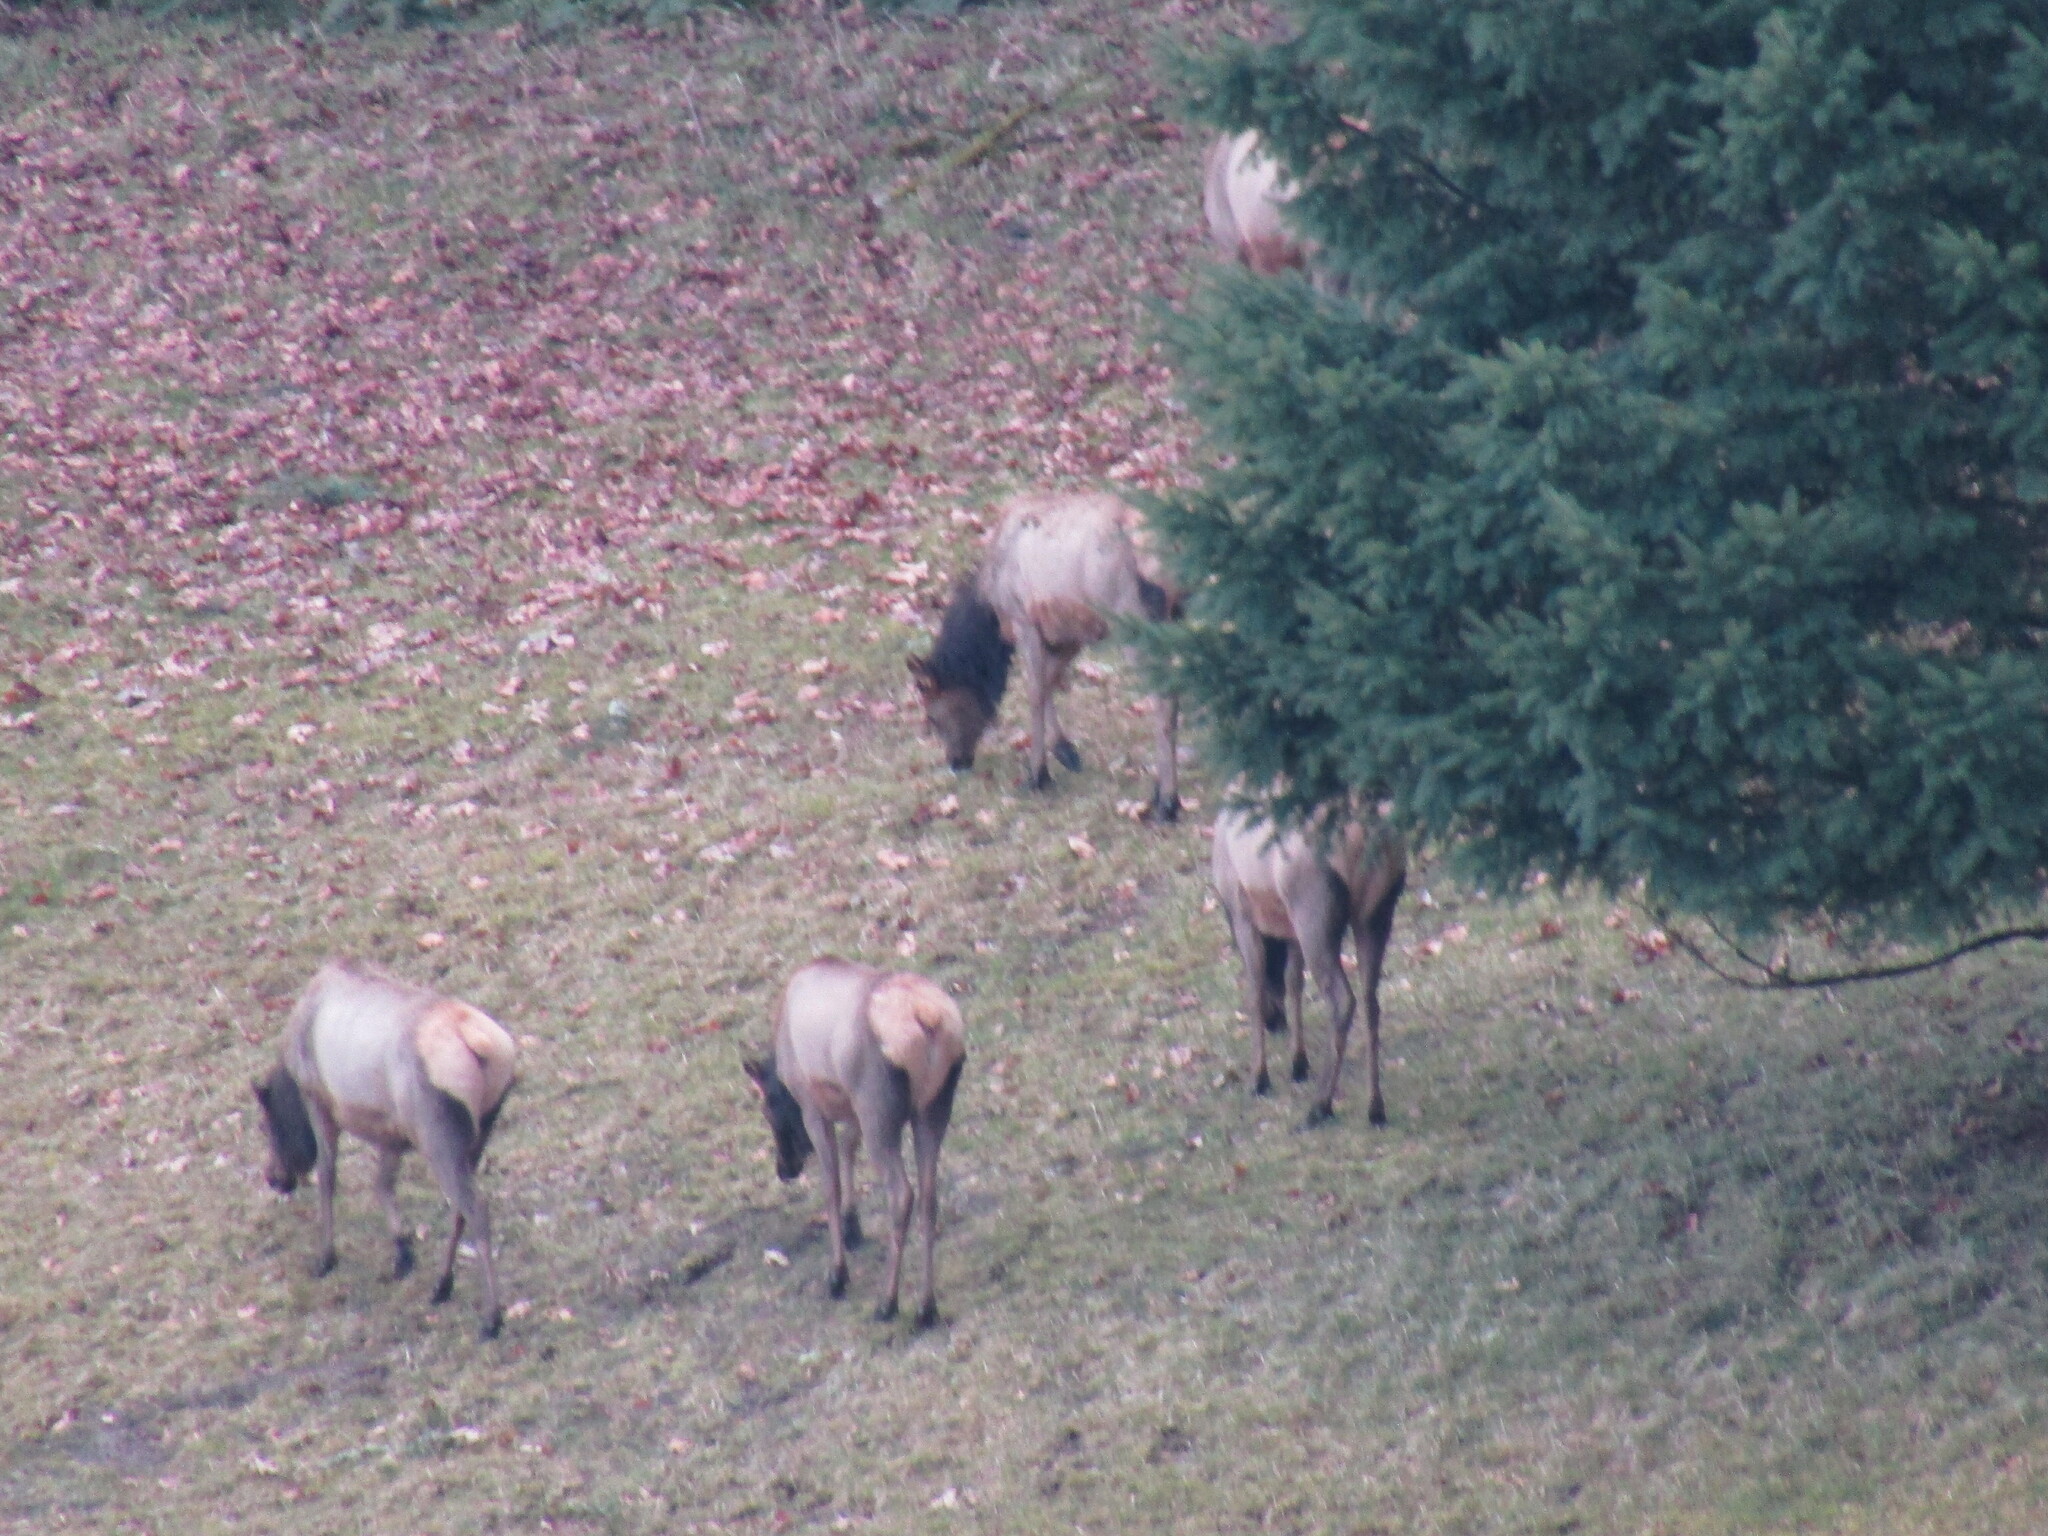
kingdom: Animalia
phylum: Chordata
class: Mammalia
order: Artiodactyla
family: Cervidae
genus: Cervus
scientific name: Cervus elaphus
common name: Red deer
